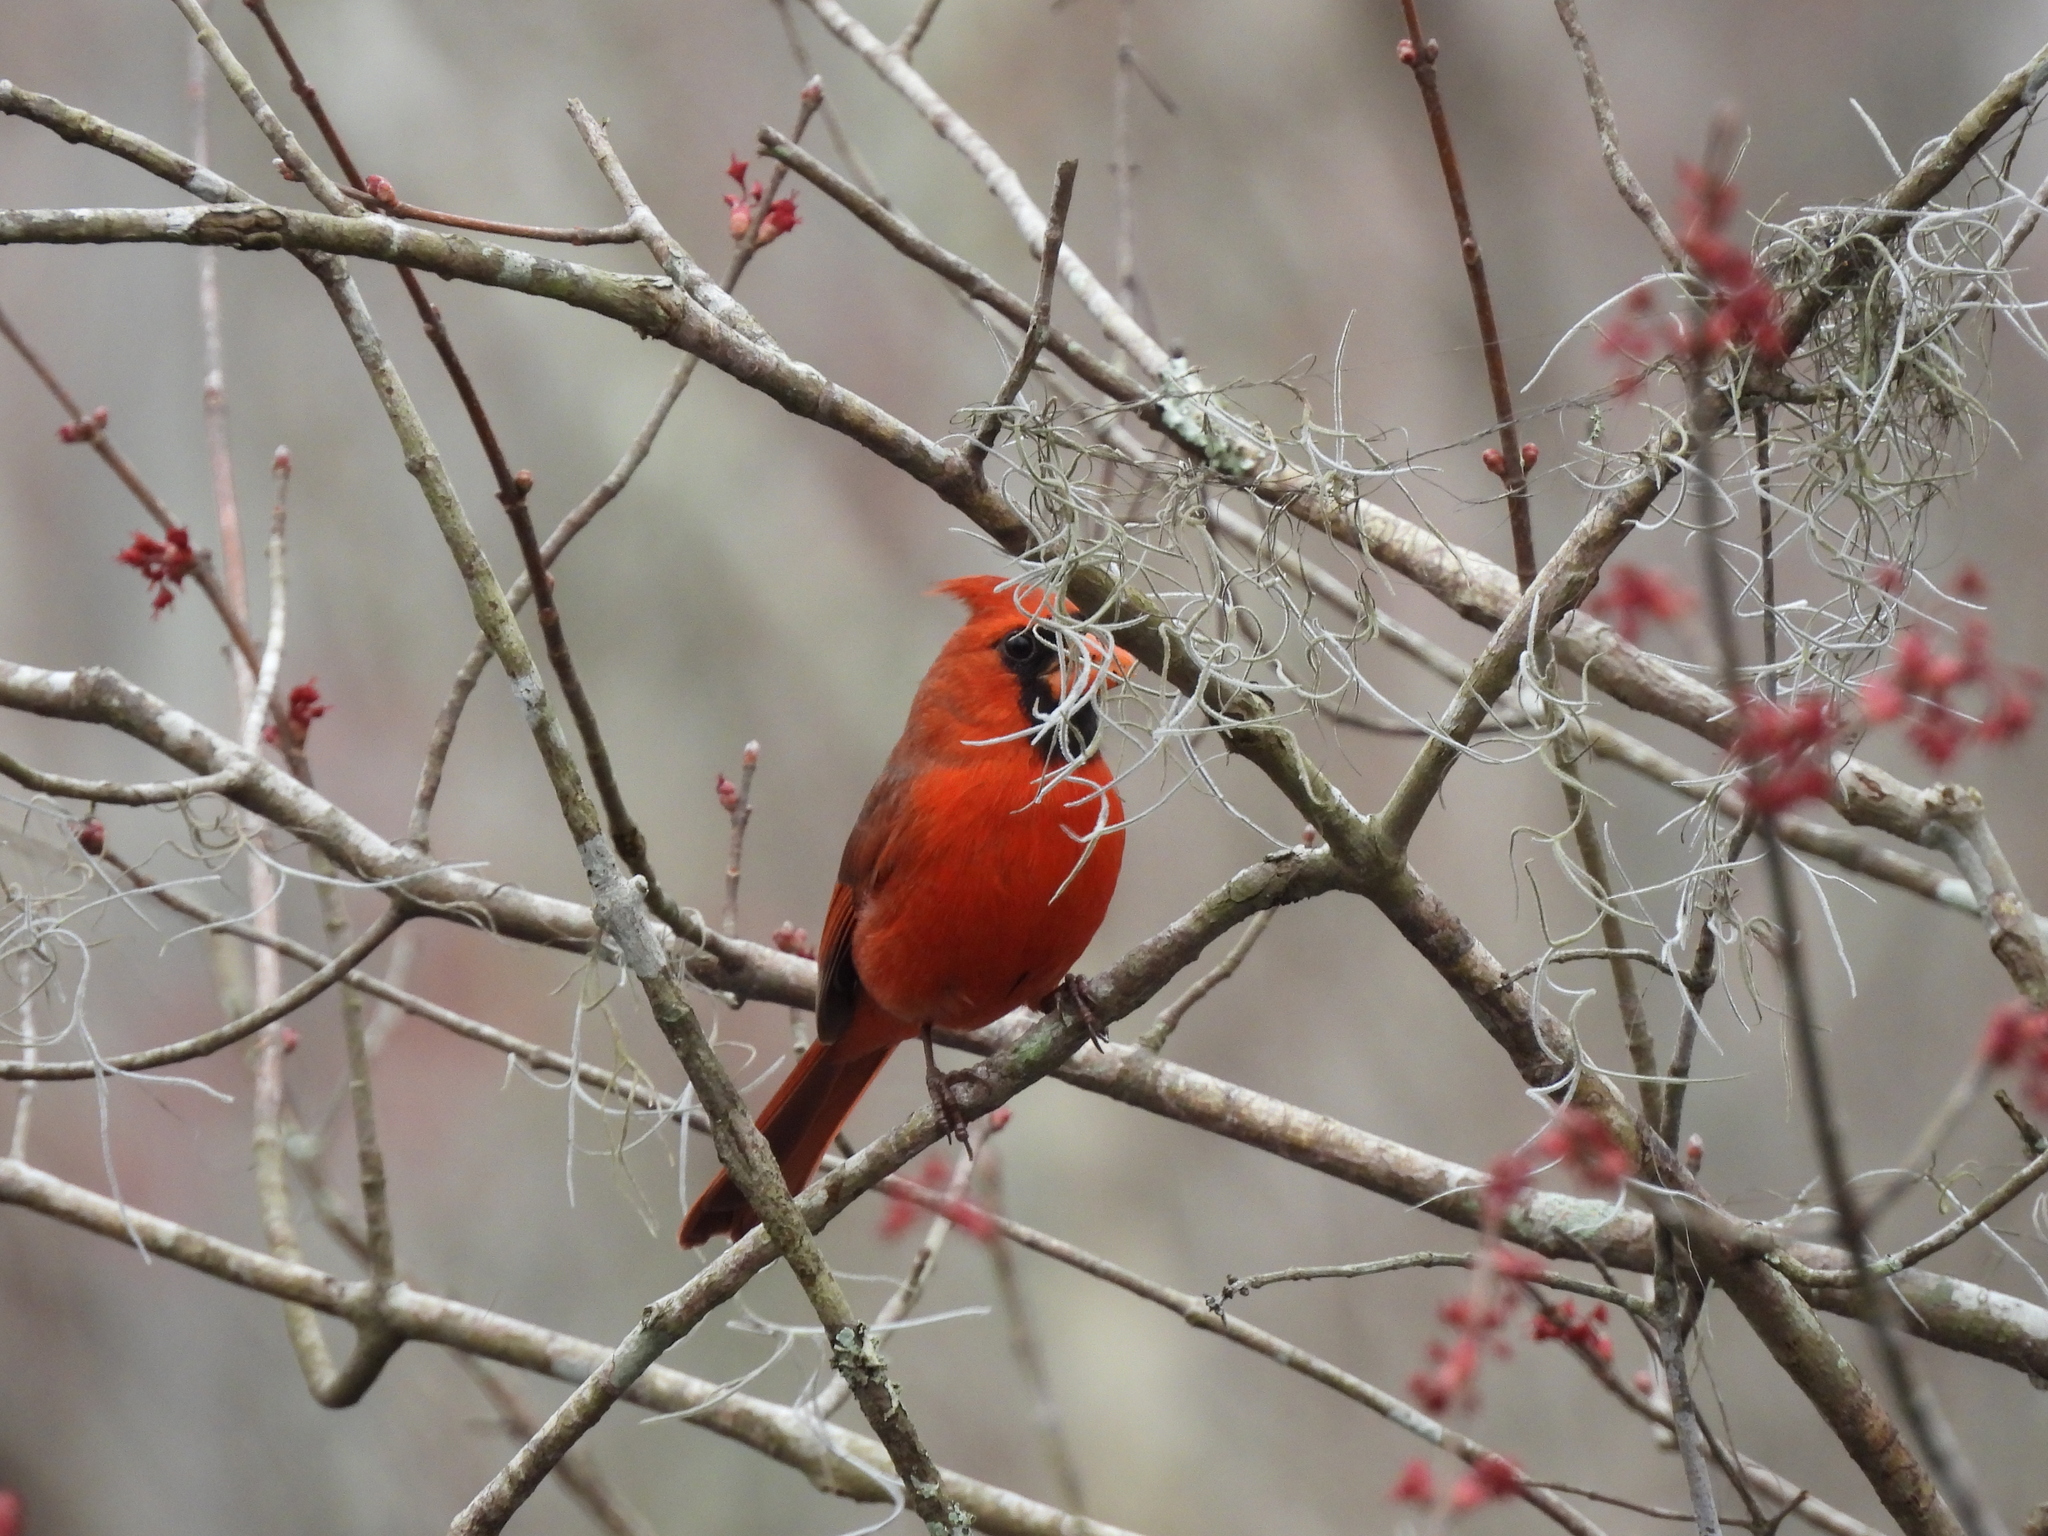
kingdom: Animalia
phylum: Chordata
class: Aves
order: Passeriformes
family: Cardinalidae
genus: Cardinalis
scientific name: Cardinalis cardinalis
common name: Northern cardinal
